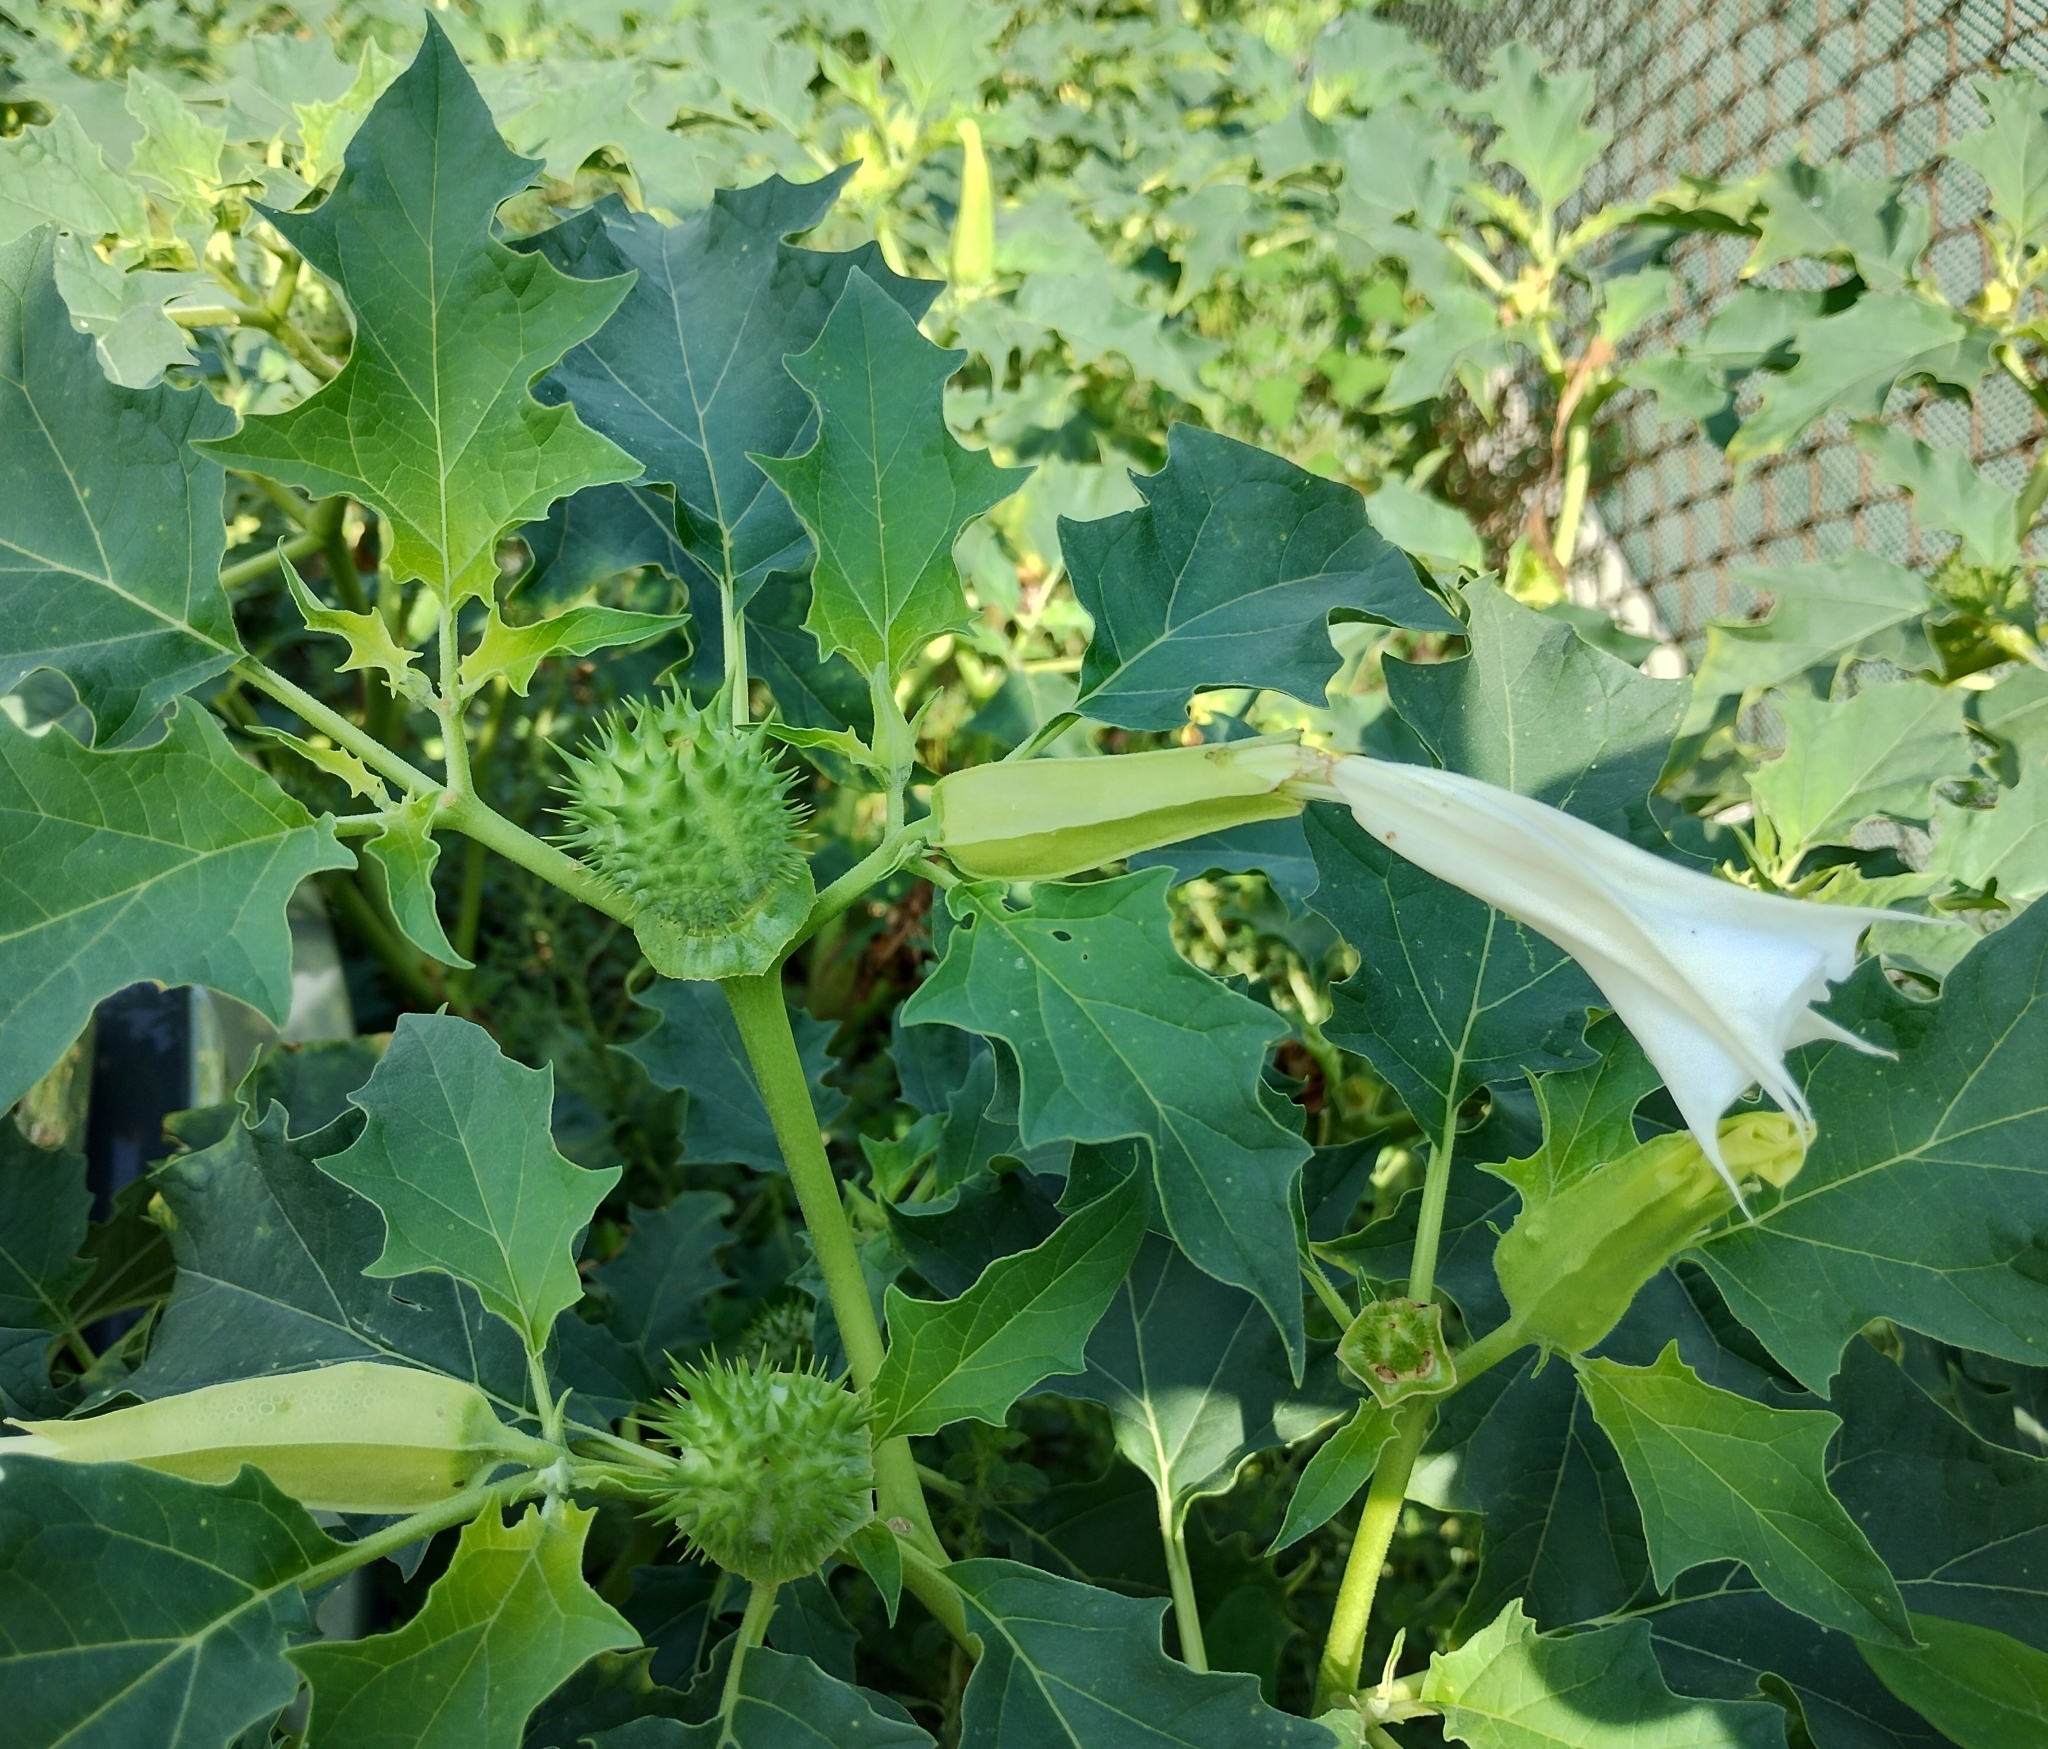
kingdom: Plantae
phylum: Tracheophyta
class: Magnoliopsida
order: Solanales
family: Solanaceae
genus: Datura
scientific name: Datura stramonium
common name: Thorn-apple
